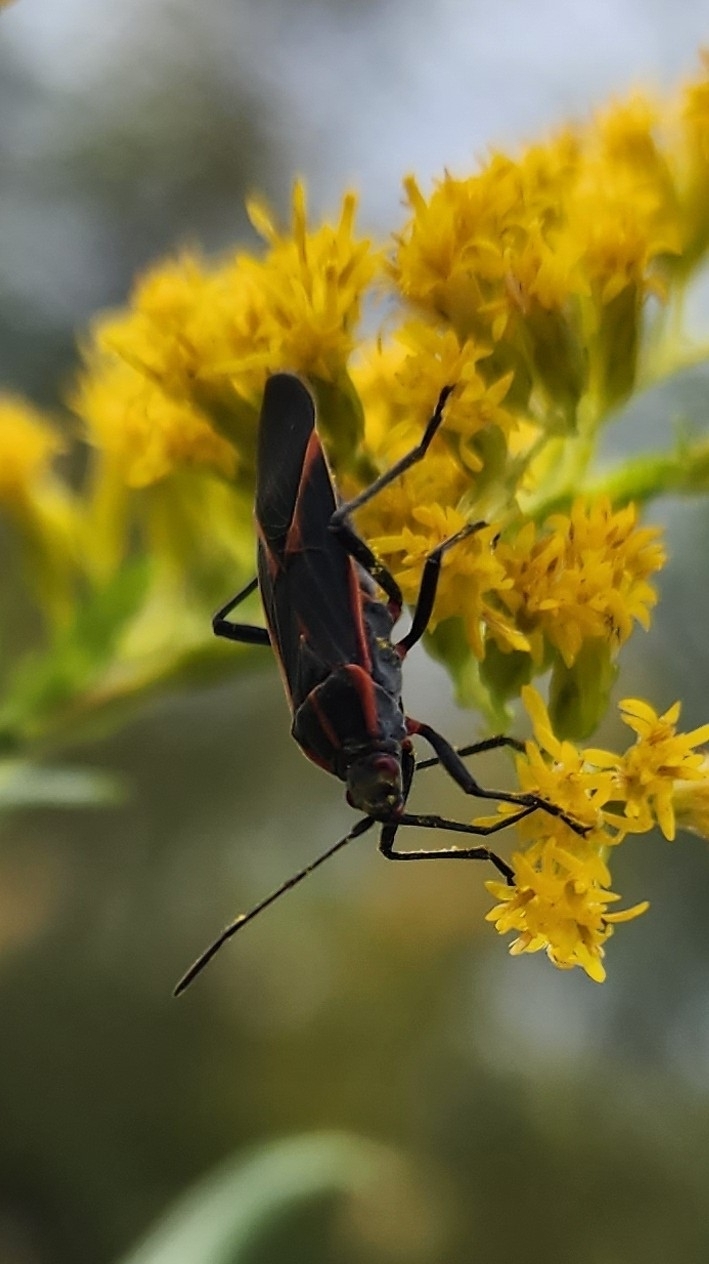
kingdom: Animalia
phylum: Arthropoda
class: Insecta
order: Hemiptera
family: Rhopalidae
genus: Boisea
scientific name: Boisea trivittata
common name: Boxelder bug
